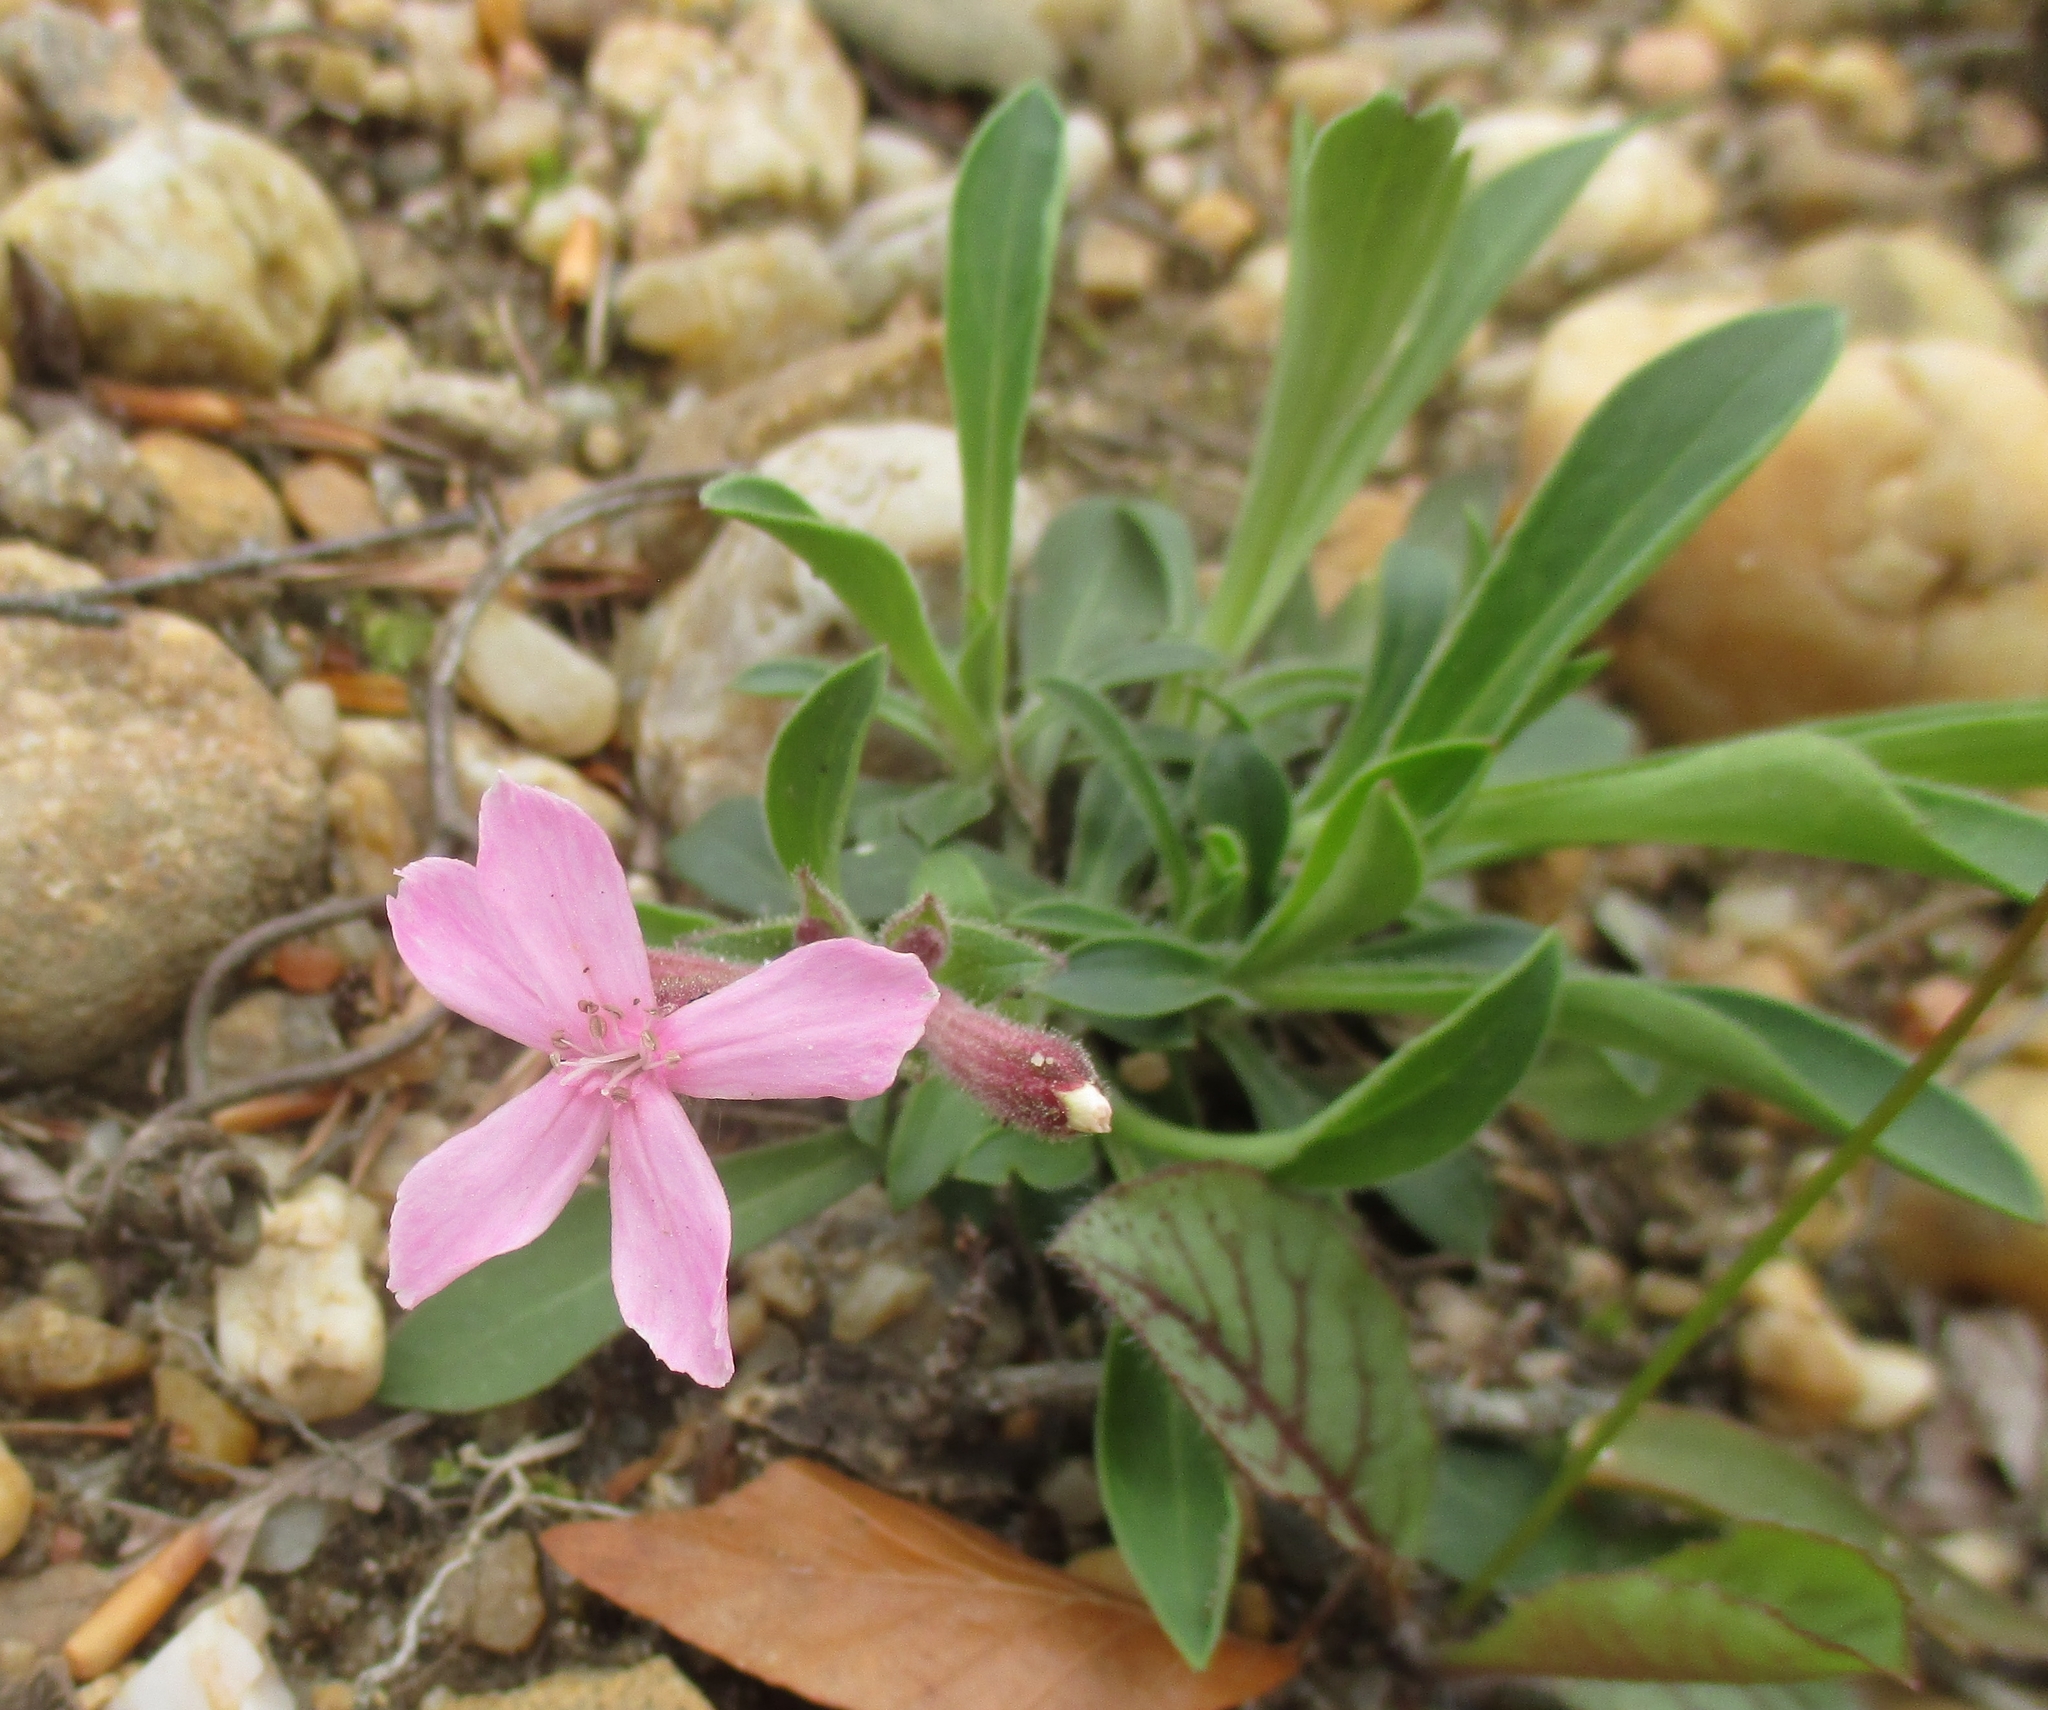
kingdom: Plantae
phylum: Tracheophyta
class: Magnoliopsida
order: Caryophyllales
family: Caryophyllaceae
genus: Silene
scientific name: Silene caroliniana
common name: Sticky catchfly
